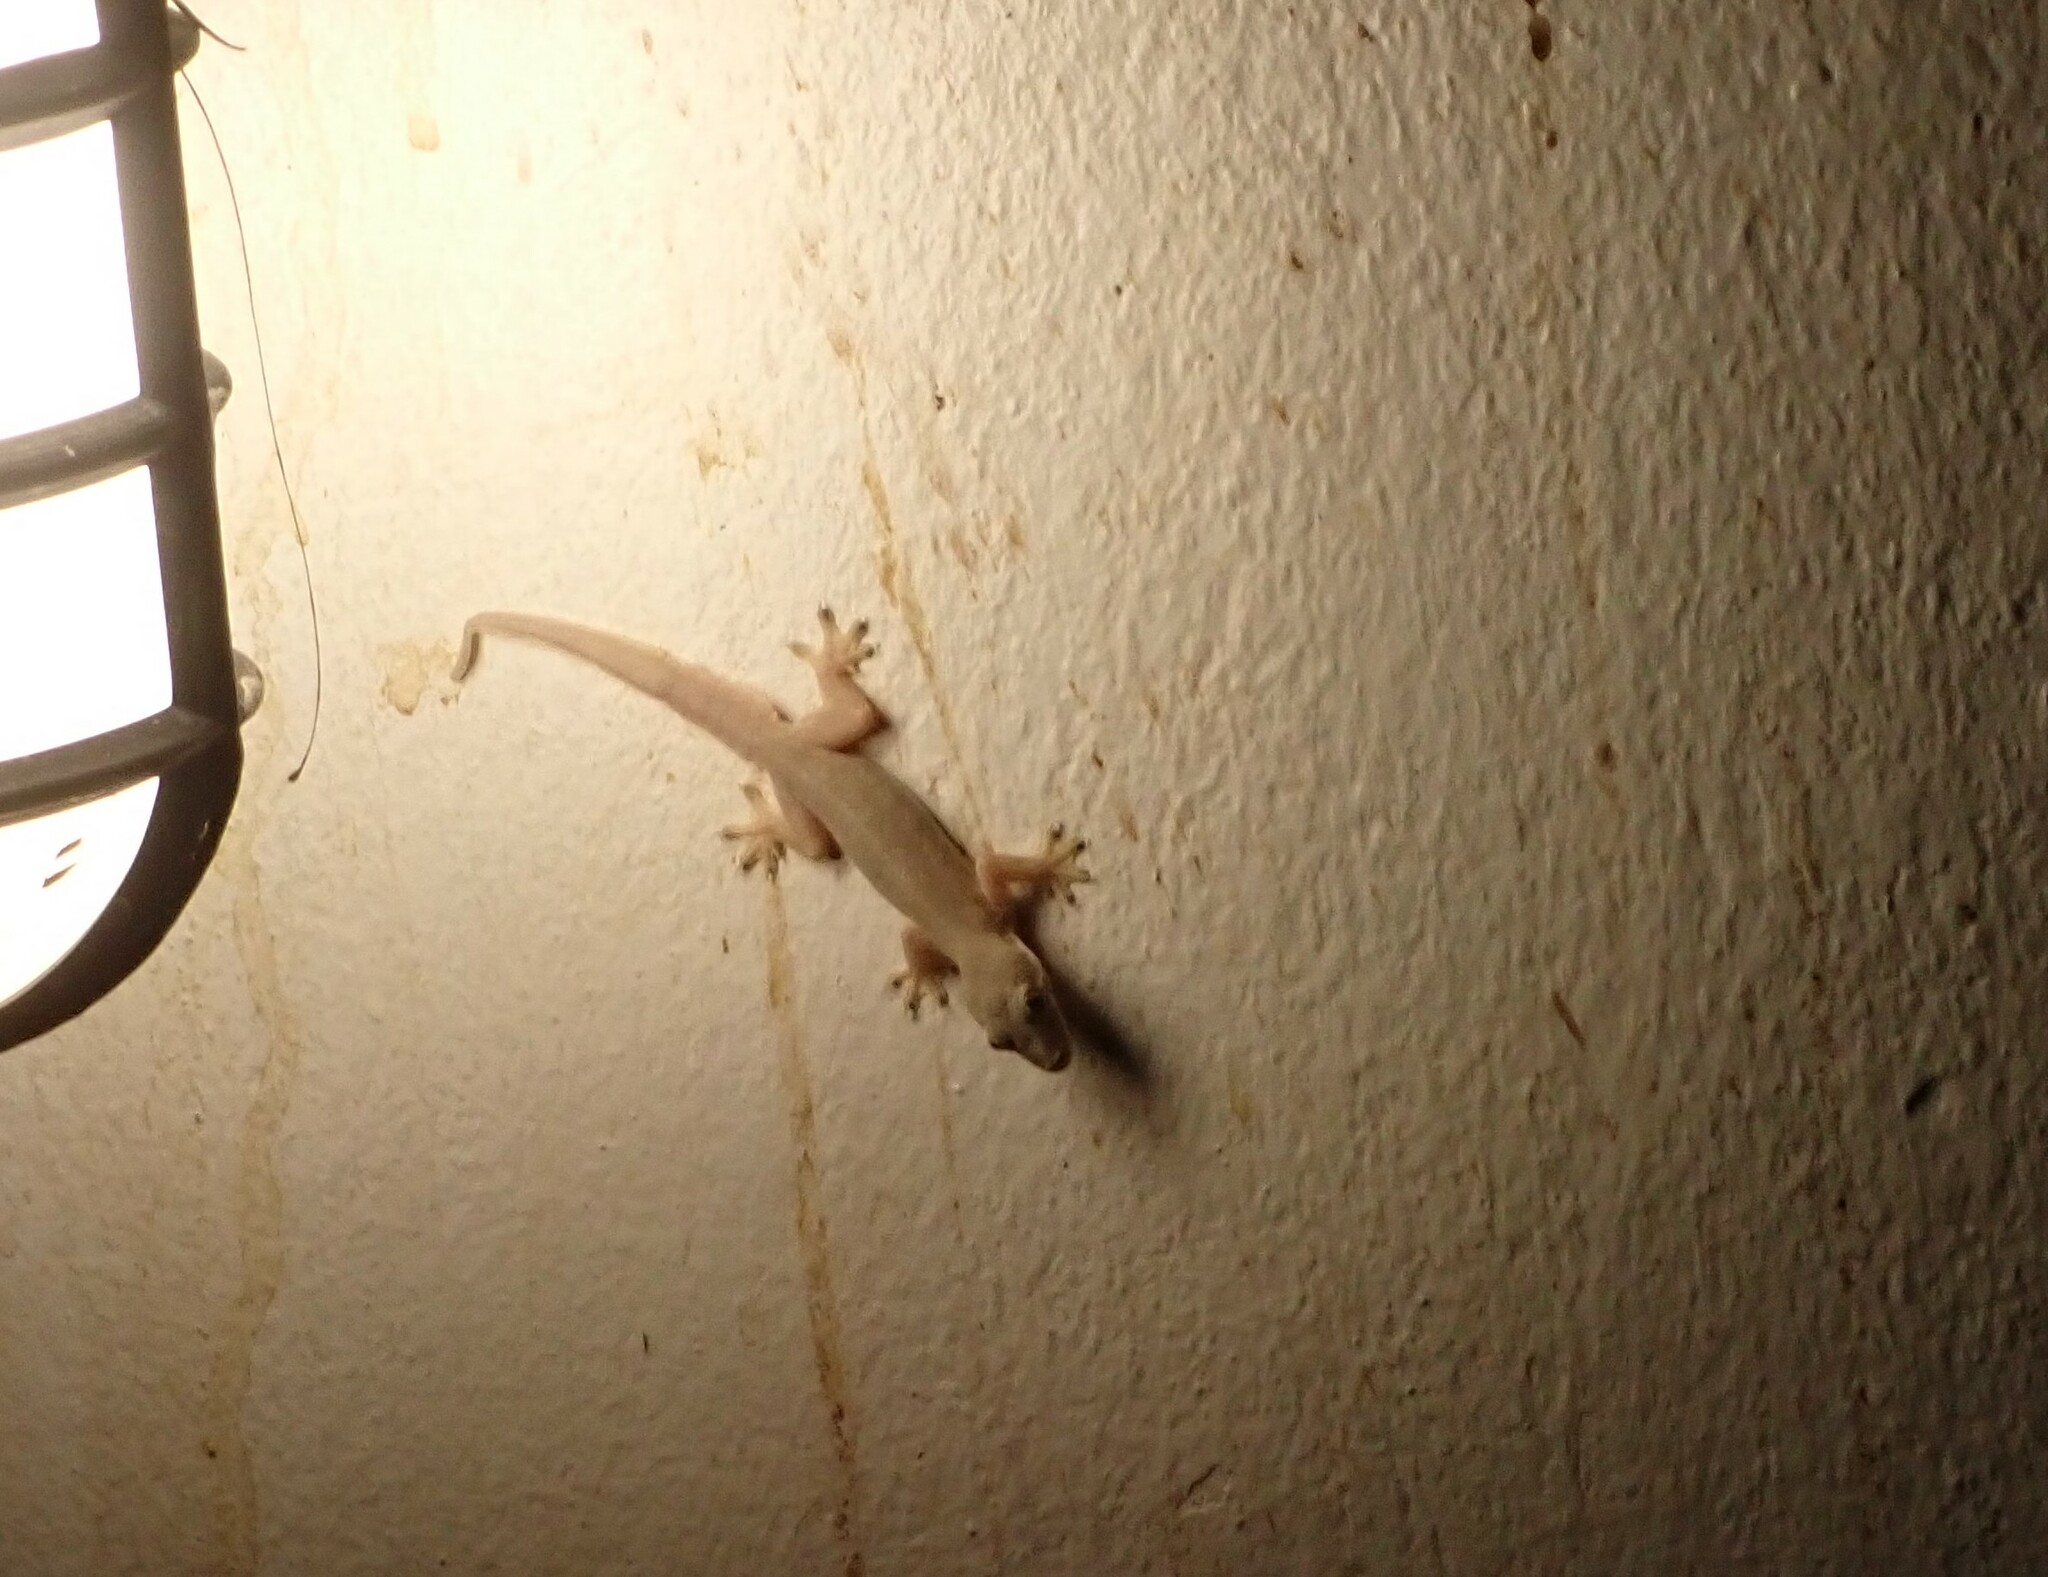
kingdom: Animalia
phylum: Chordata
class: Squamata
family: Gekkonidae
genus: Hemidactylus
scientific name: Hemidactylus platyurus
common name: Flat-tailed house gecko
